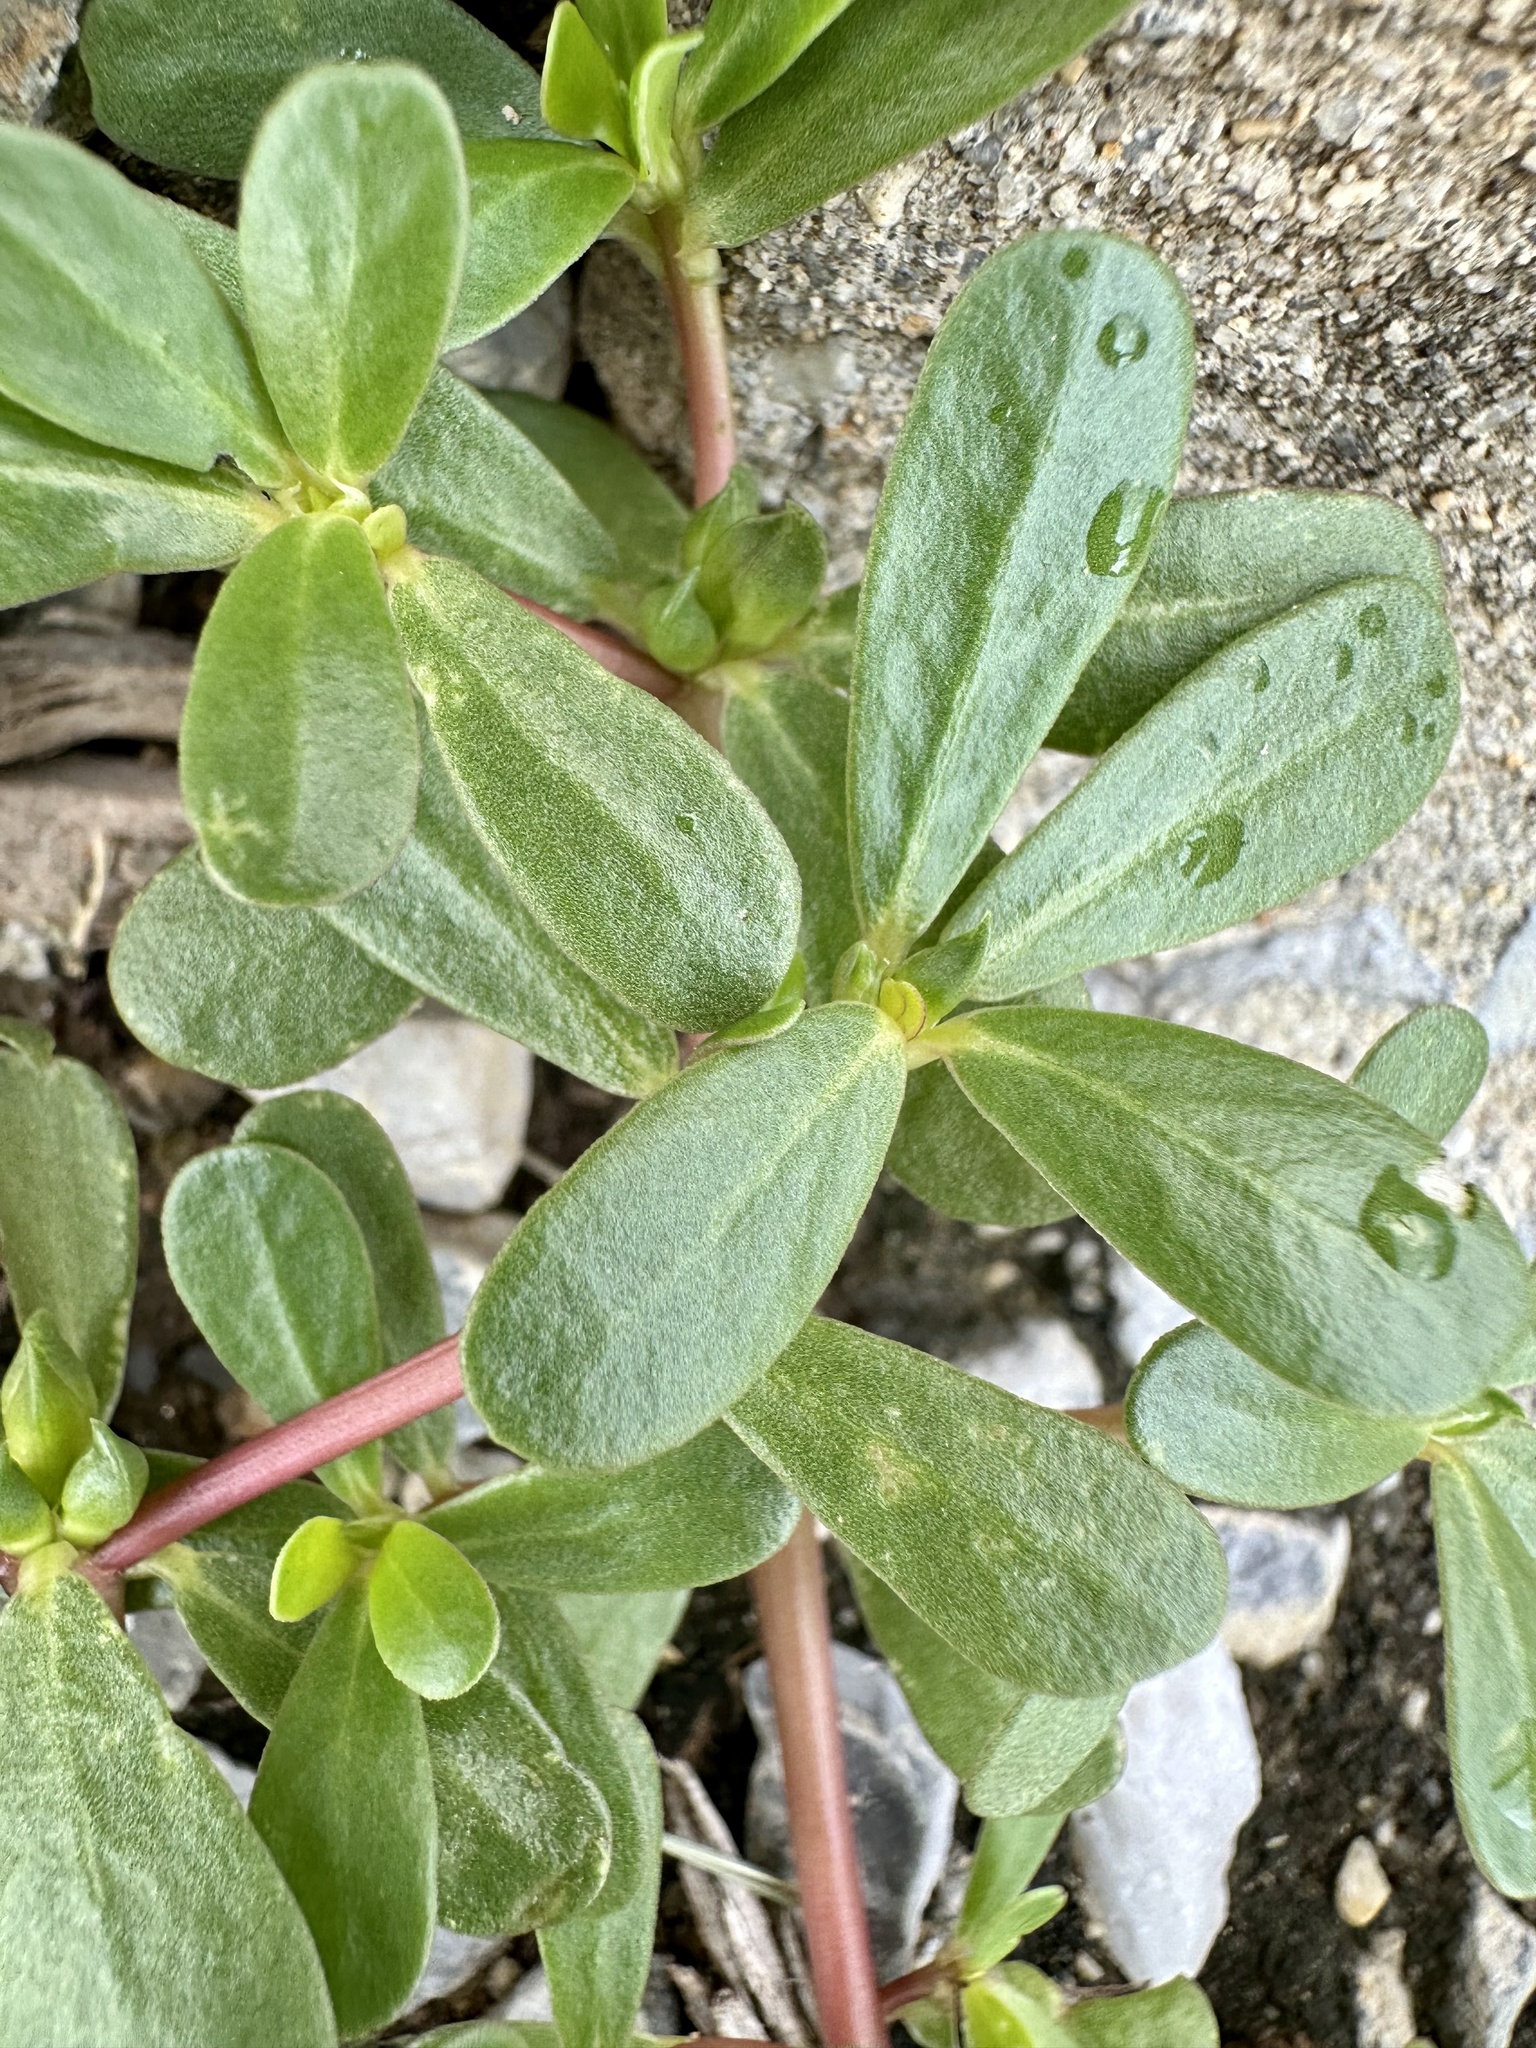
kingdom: Plantae
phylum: Tracheophyta
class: Magnoliopsida
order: Caryophyllales
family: Portulacaceae
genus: Portulaca
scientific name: Portulaca oleracea
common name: Common purslane
